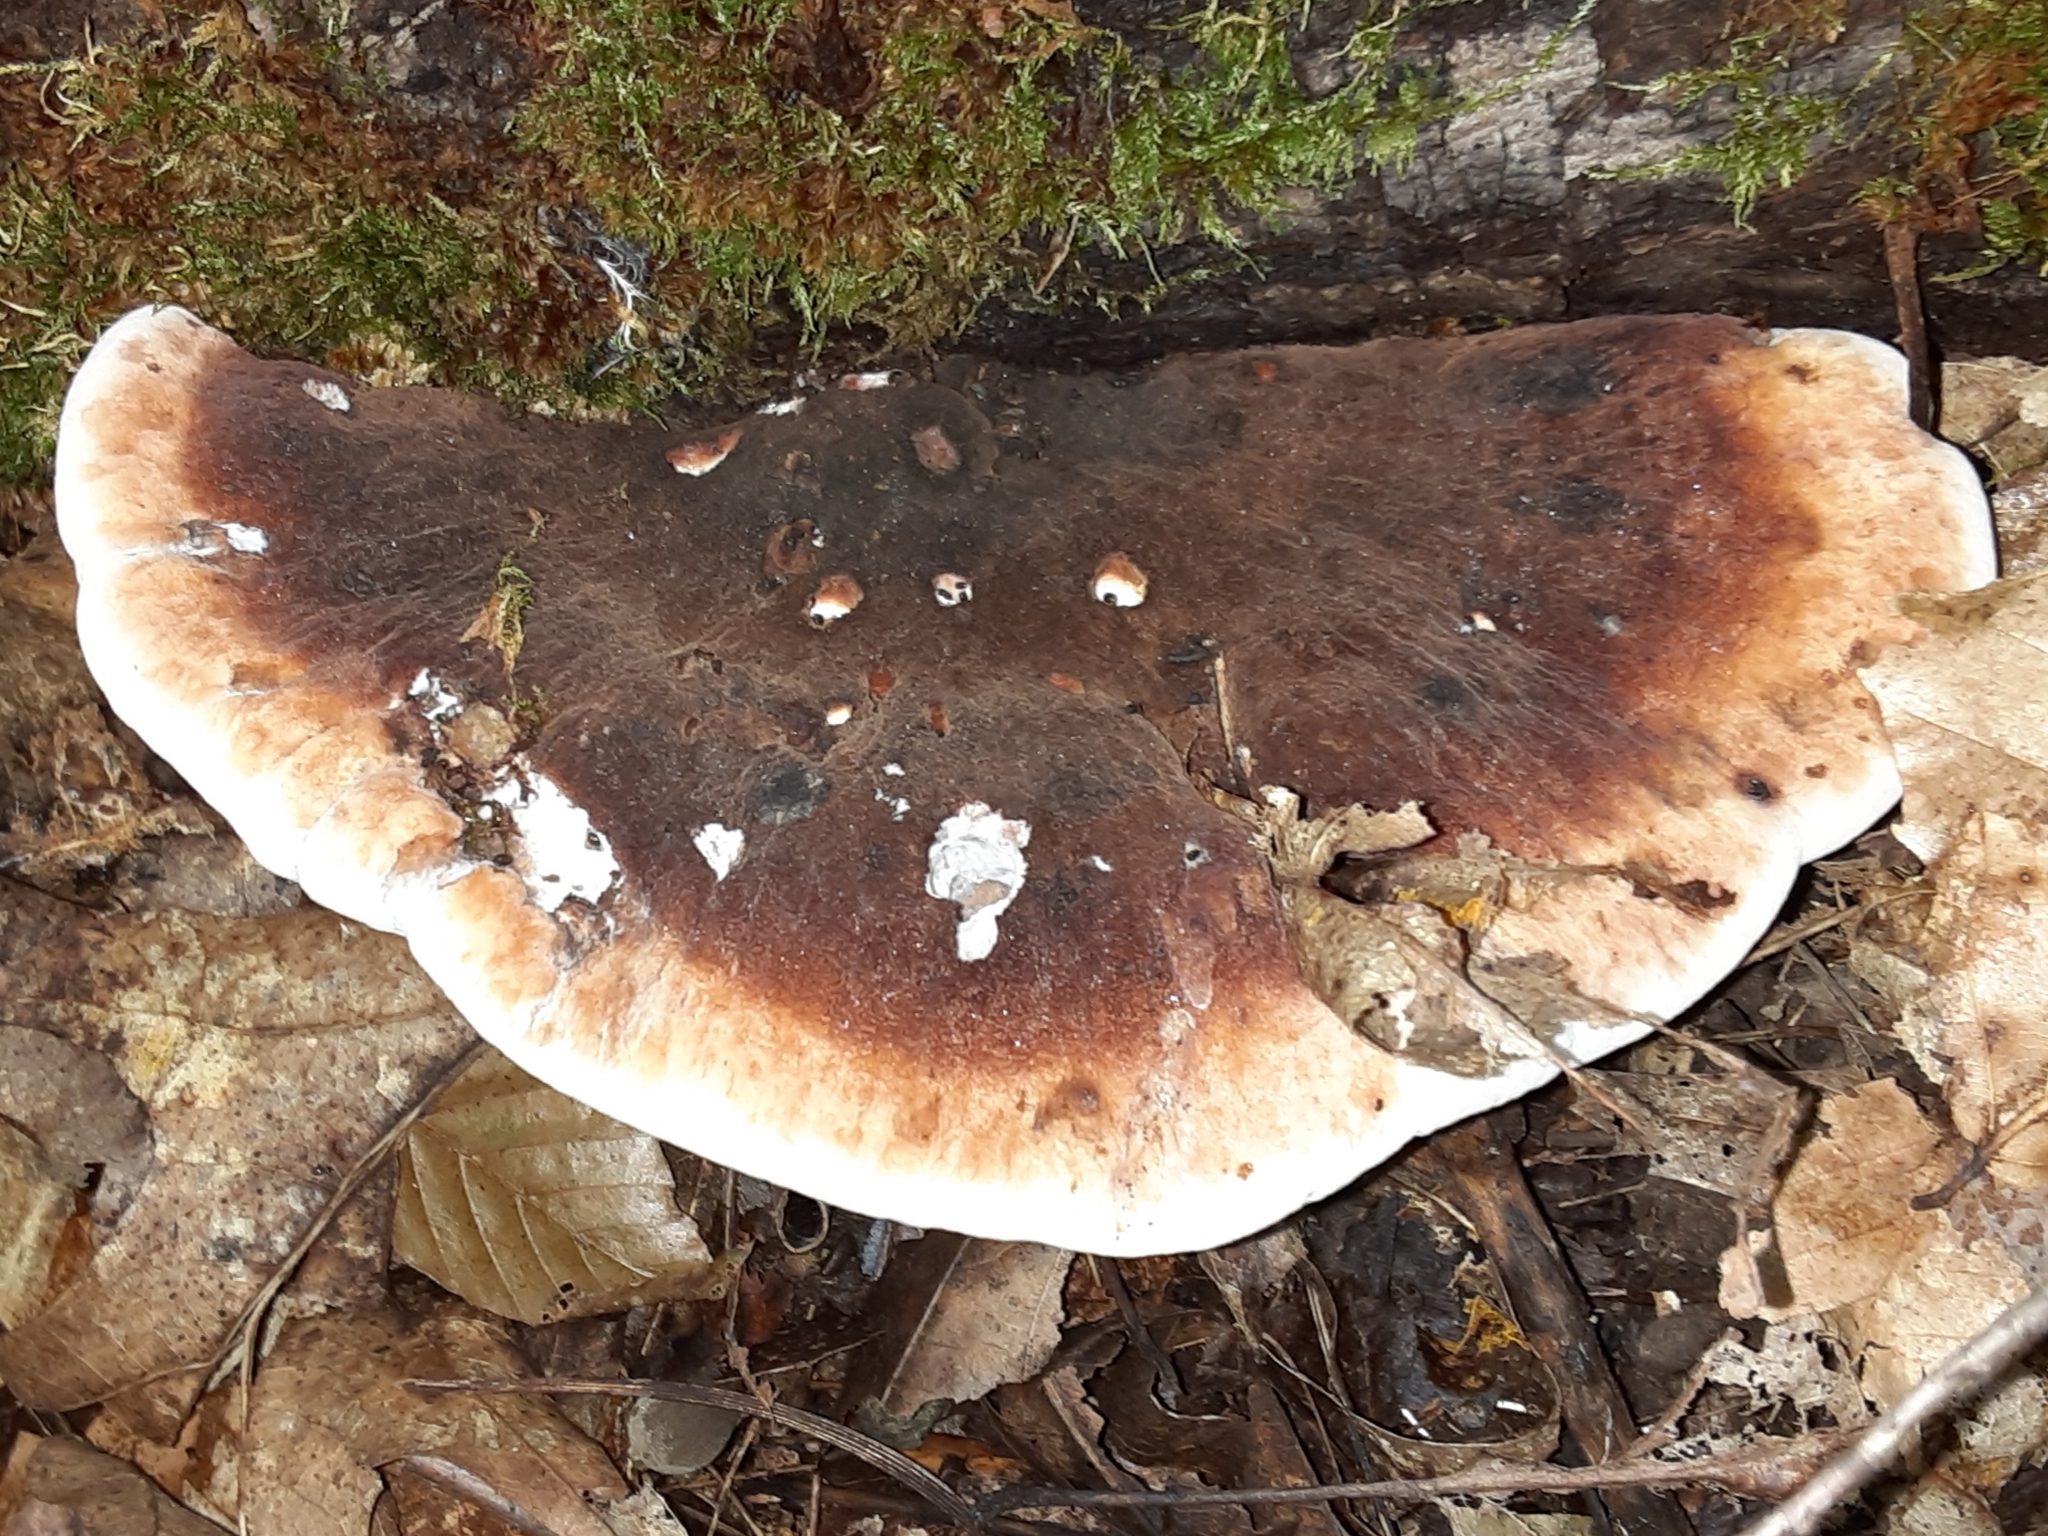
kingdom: Fungi
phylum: Basidiomycota
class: Agaricomycetes
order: Polyporales
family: Ischnodermataceae
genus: Ischnoderma
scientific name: Ischnoderma resinosum
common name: Resinous polypore
